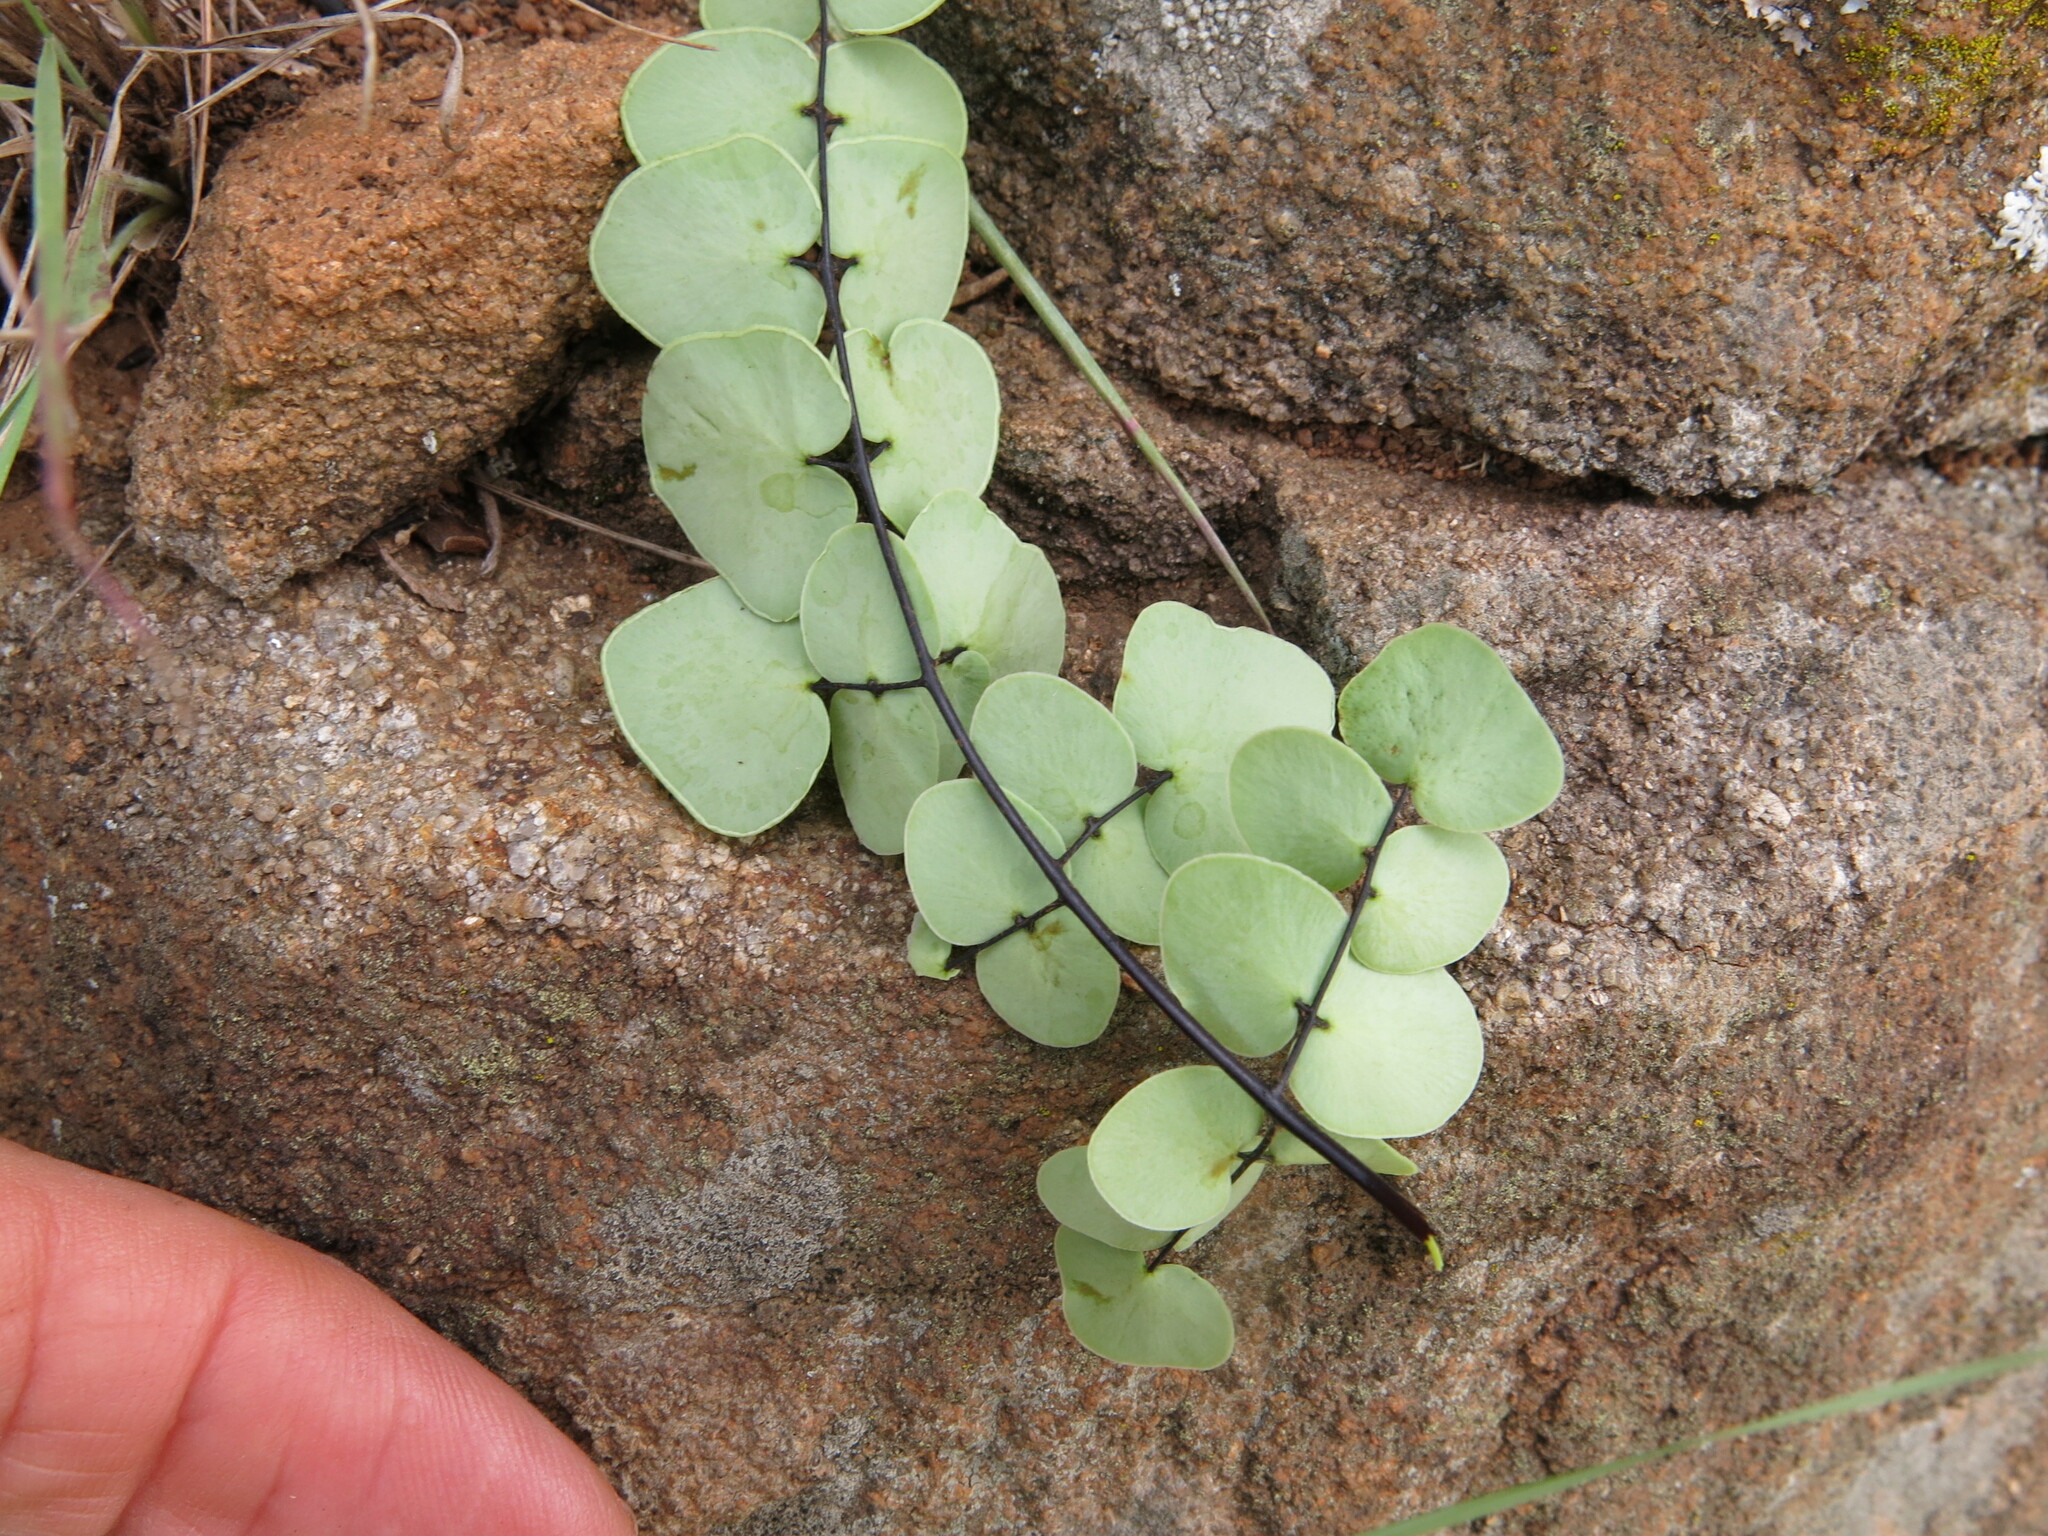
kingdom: Plantae
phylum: Tracheophyta
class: Polypodiopsida
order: Polypodiales
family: Pteridaceae
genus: Pellaea
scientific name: Pellaea calomelanos
